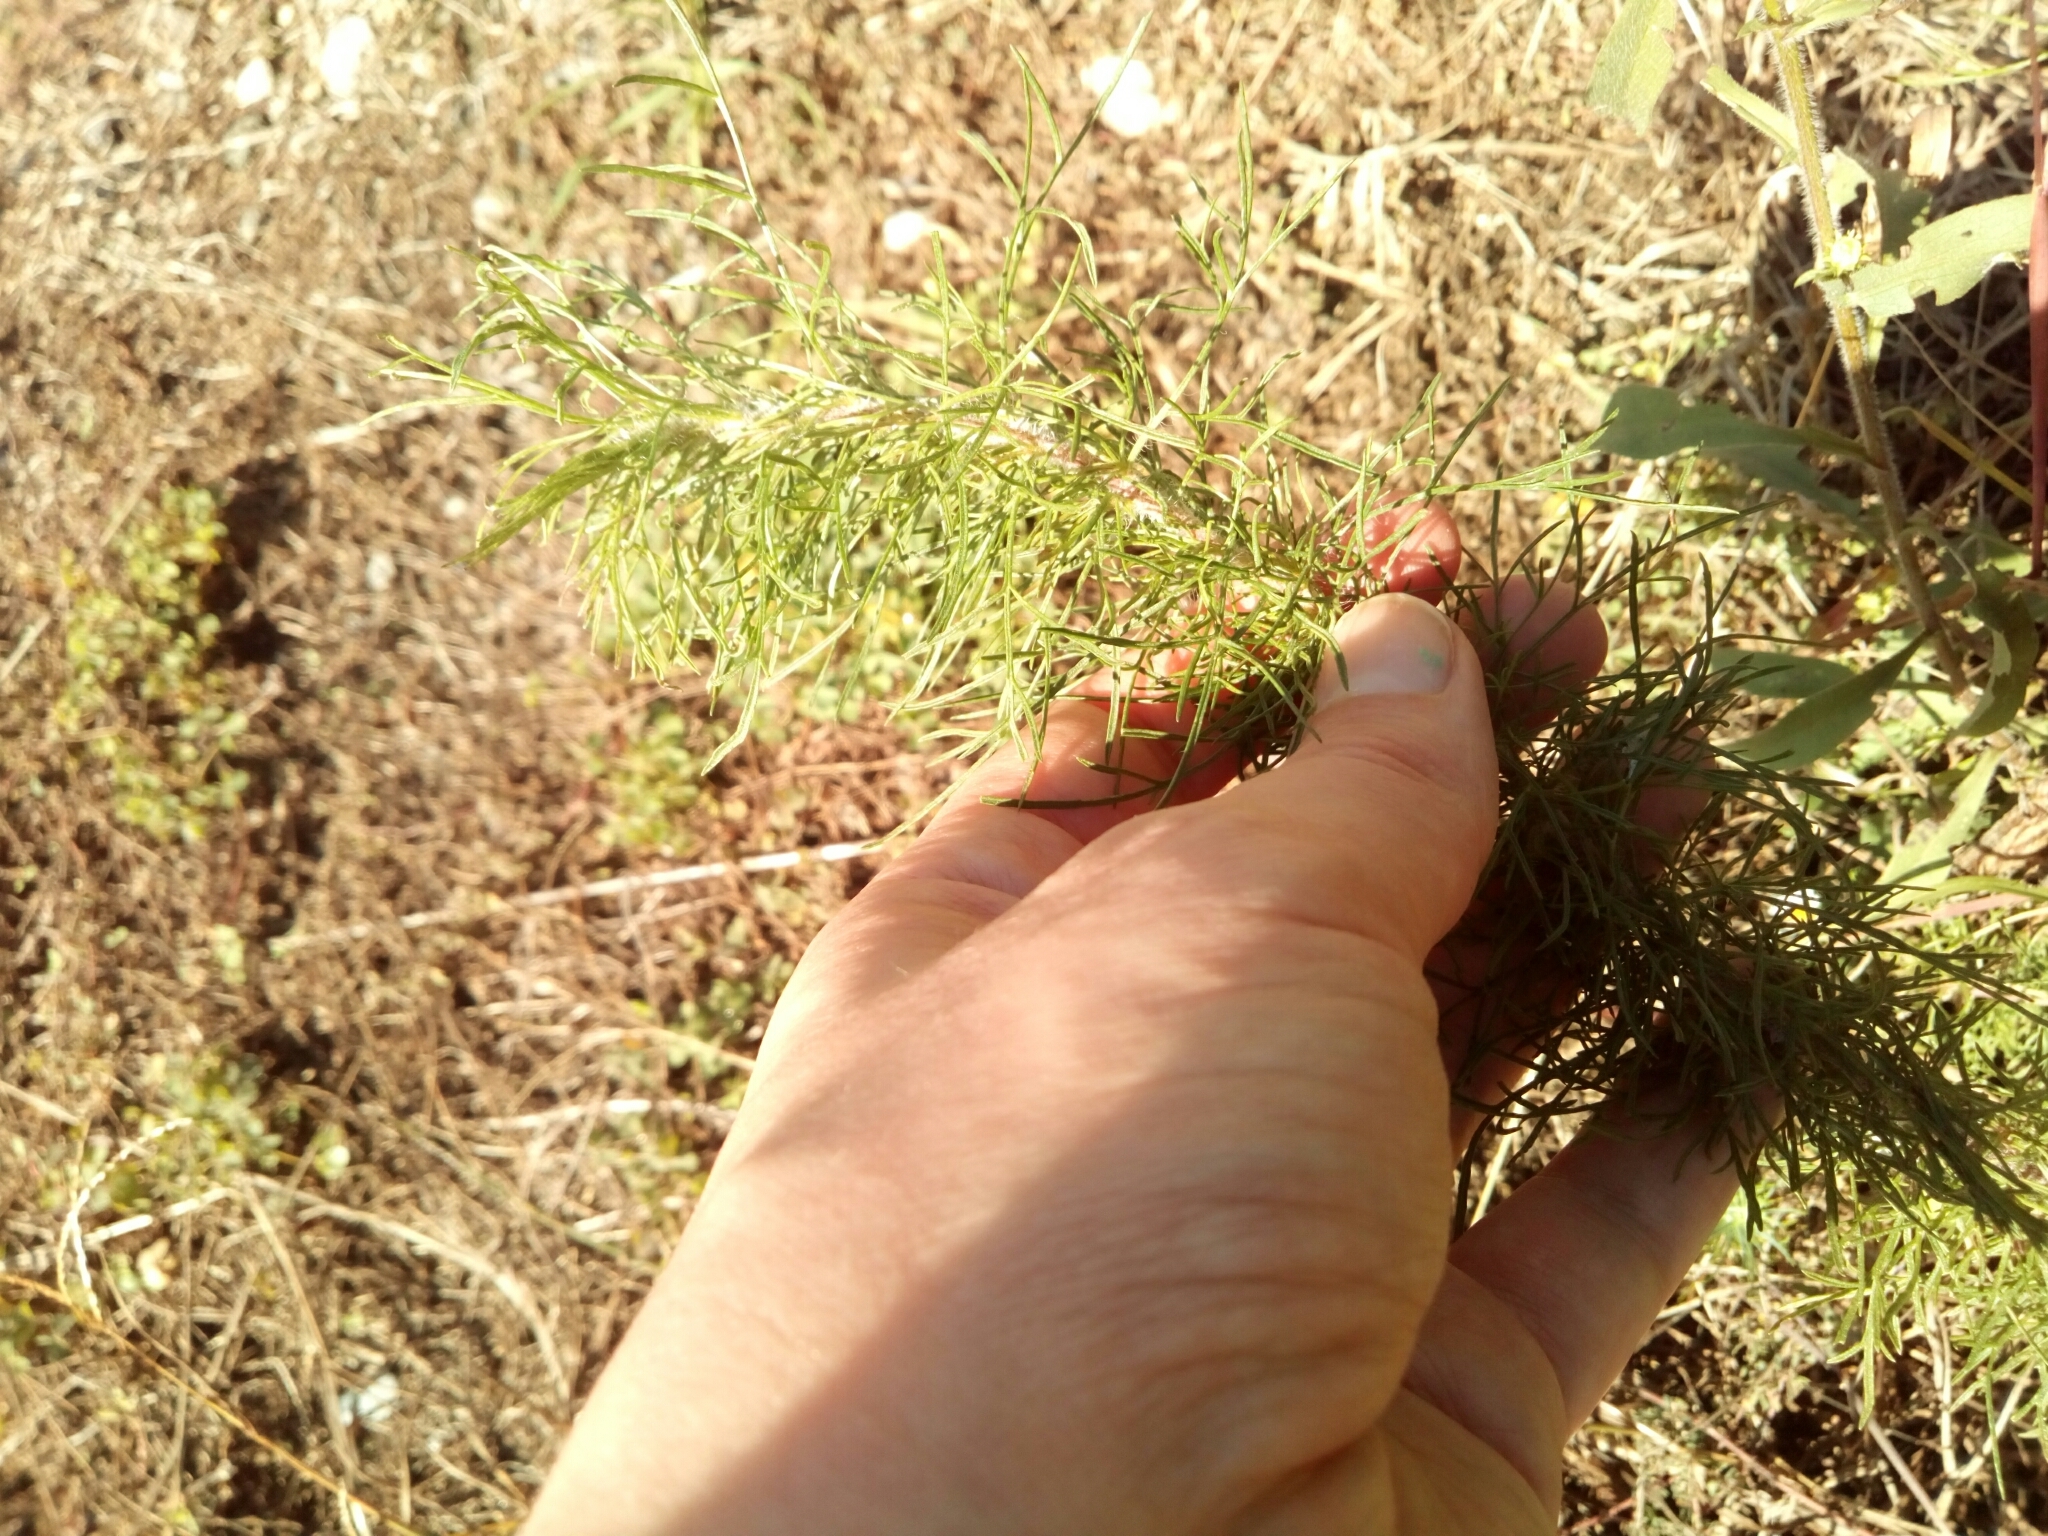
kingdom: Plantae
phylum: Tracheophyta
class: Magnoliopsida
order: Asterales
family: Asteraceae
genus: Eupatorium
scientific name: Eupatorium capillifolium
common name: Dog-fennel
